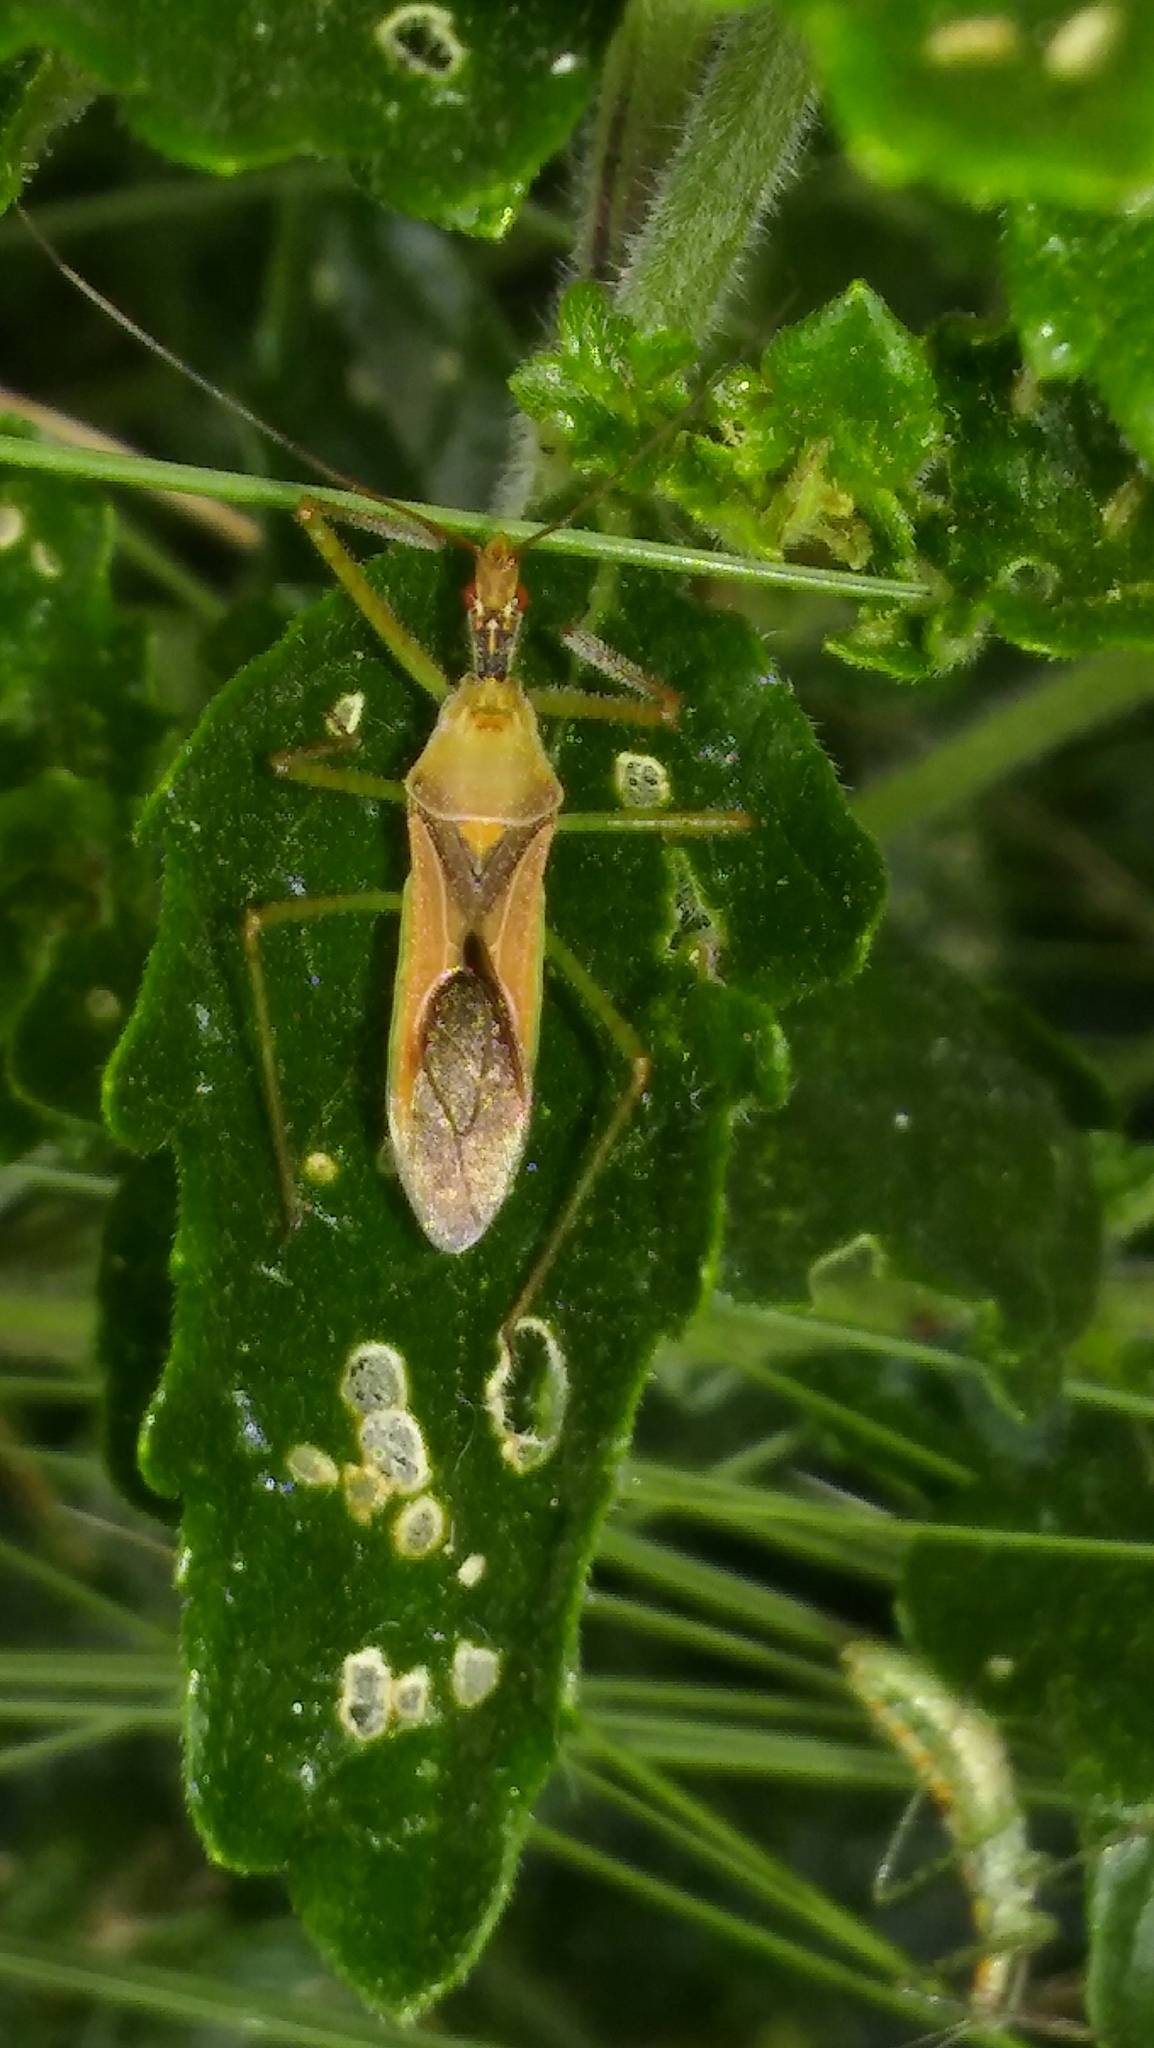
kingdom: Animalia
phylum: Arthropoda
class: Insecta
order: Hemiptera
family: Reduviidae
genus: Zelus
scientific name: Zelus renardii
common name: Assassin bug
